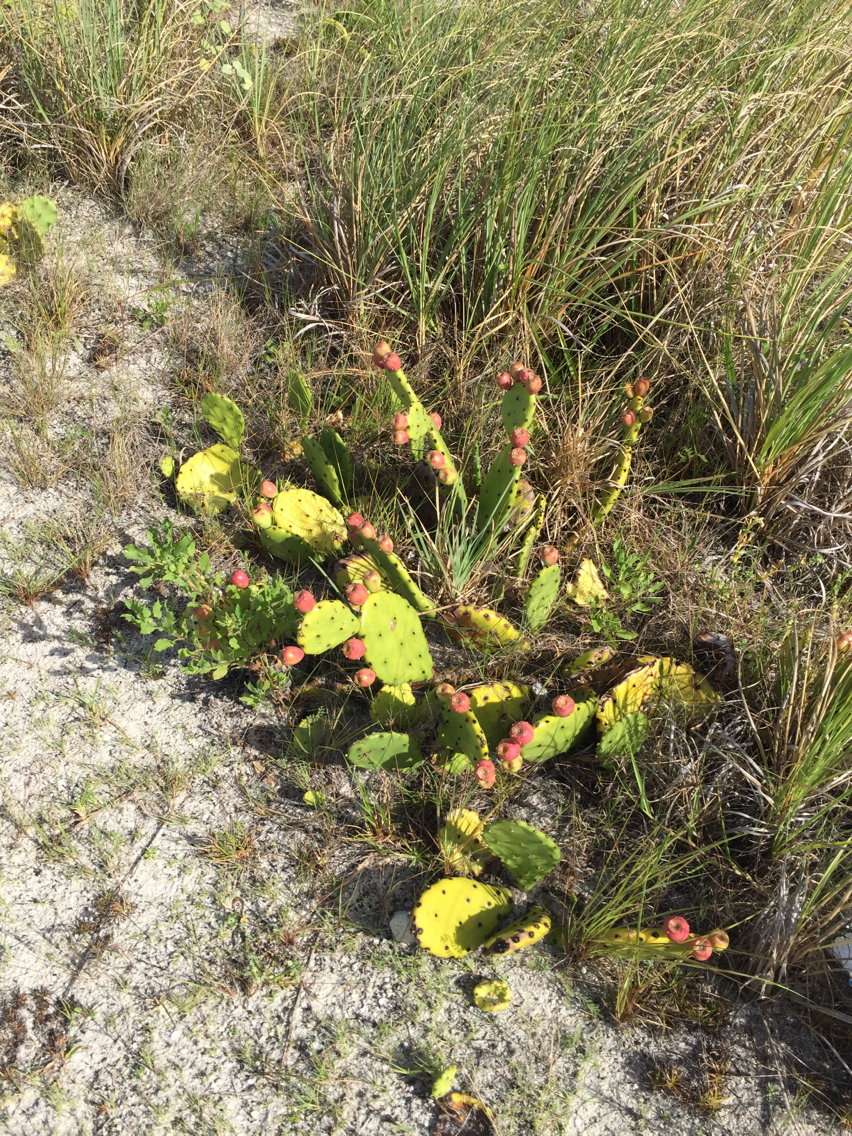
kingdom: Plantae
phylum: Tracheophyta
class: Magnoliopsida
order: Caryophyllales
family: Cactaceae
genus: Opuntia
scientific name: Opuntia humifusa
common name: Eastern prickly-pear
